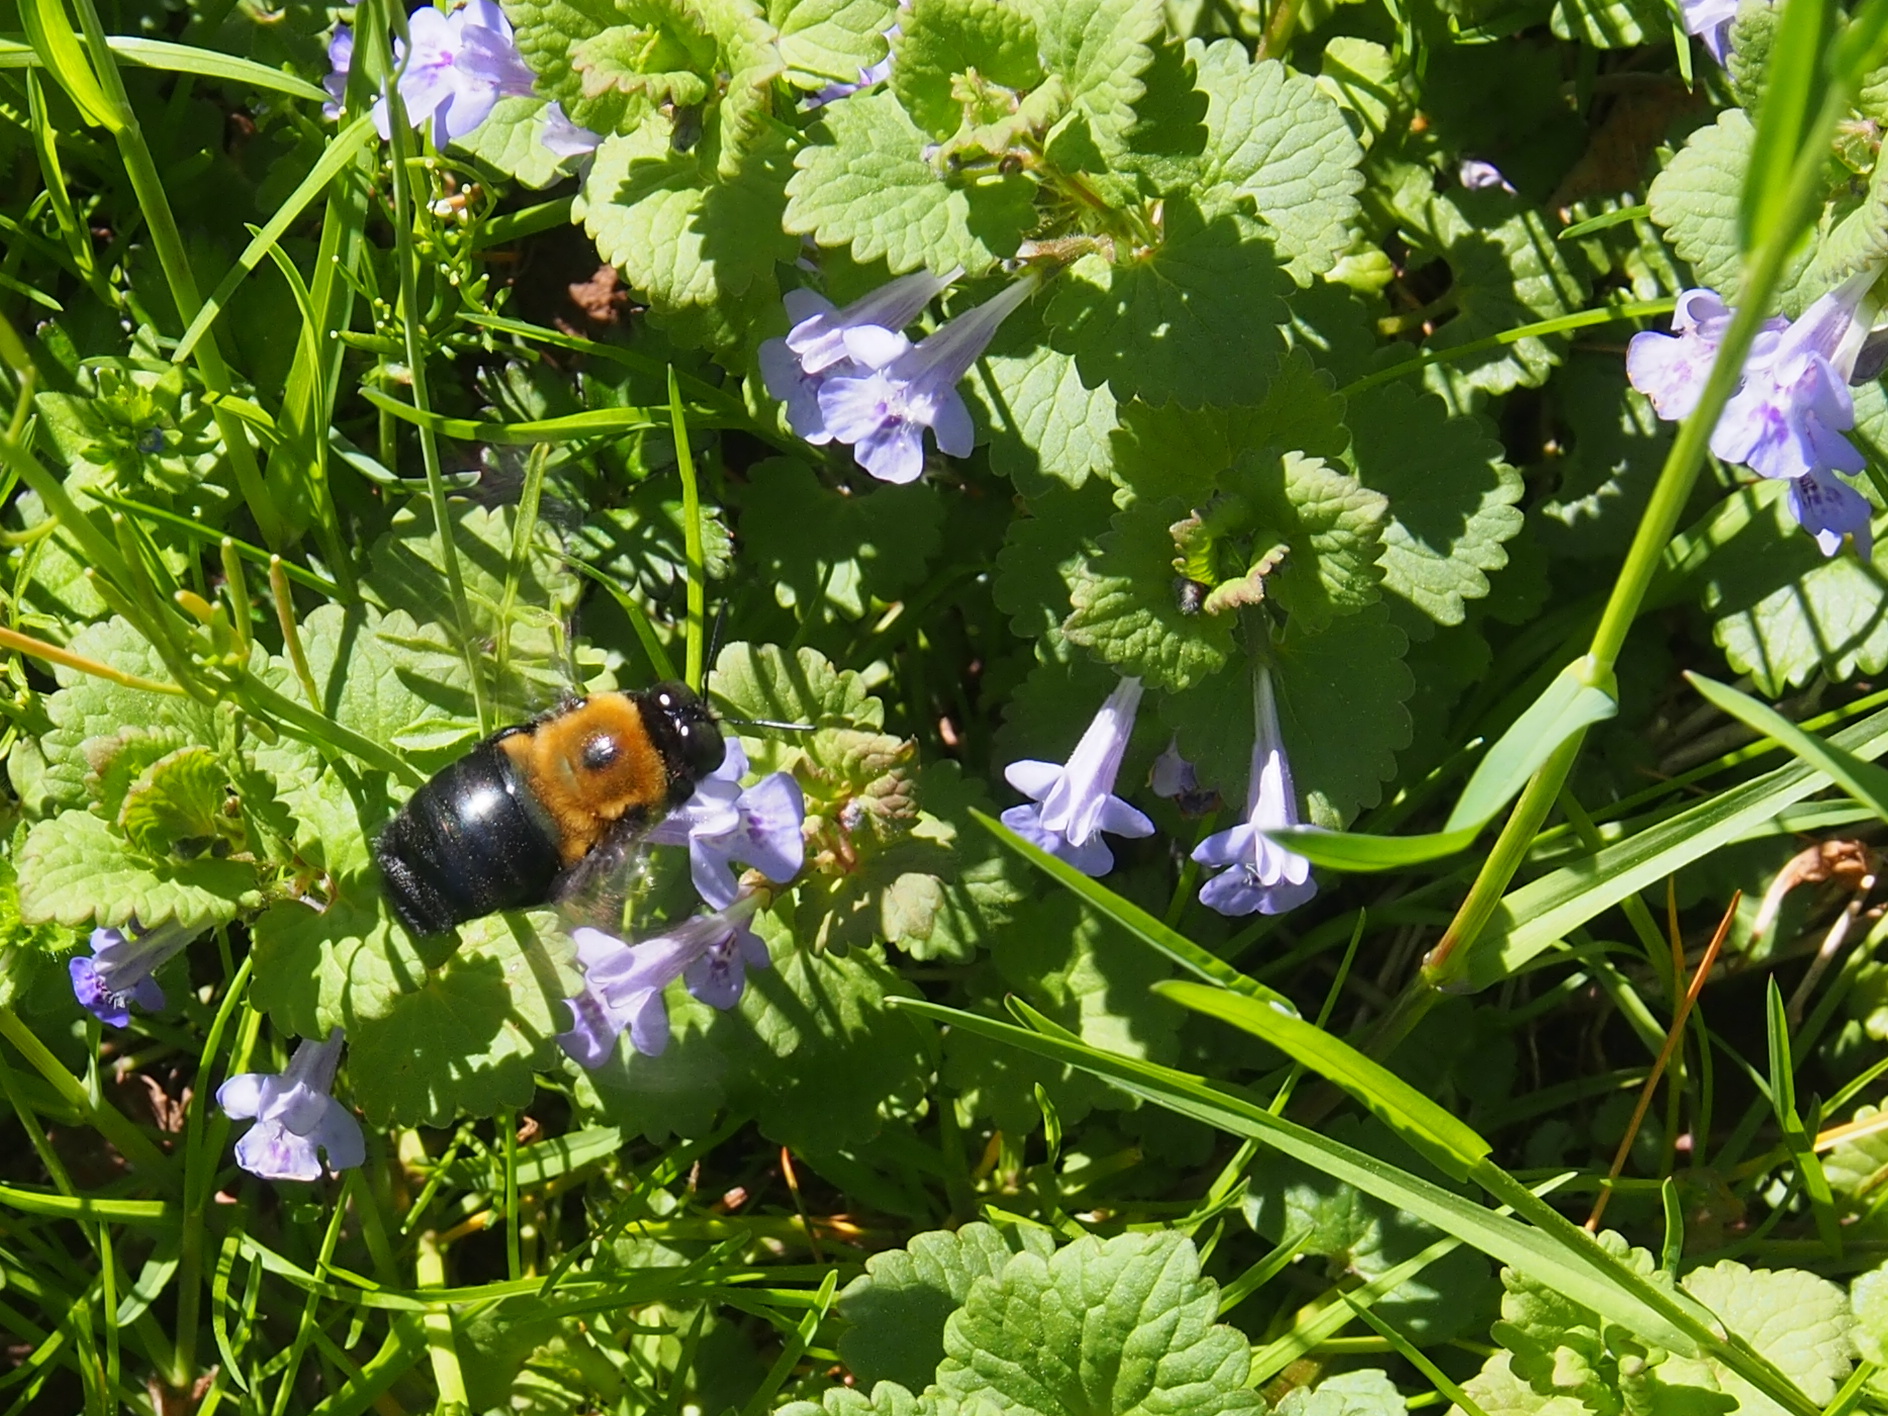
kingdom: Animalia
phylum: Arthropoda
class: Insecta
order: Hymenoptera
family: Apidae
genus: Xylocopa
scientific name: Xylocopa virginica
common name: Carpenter bee
